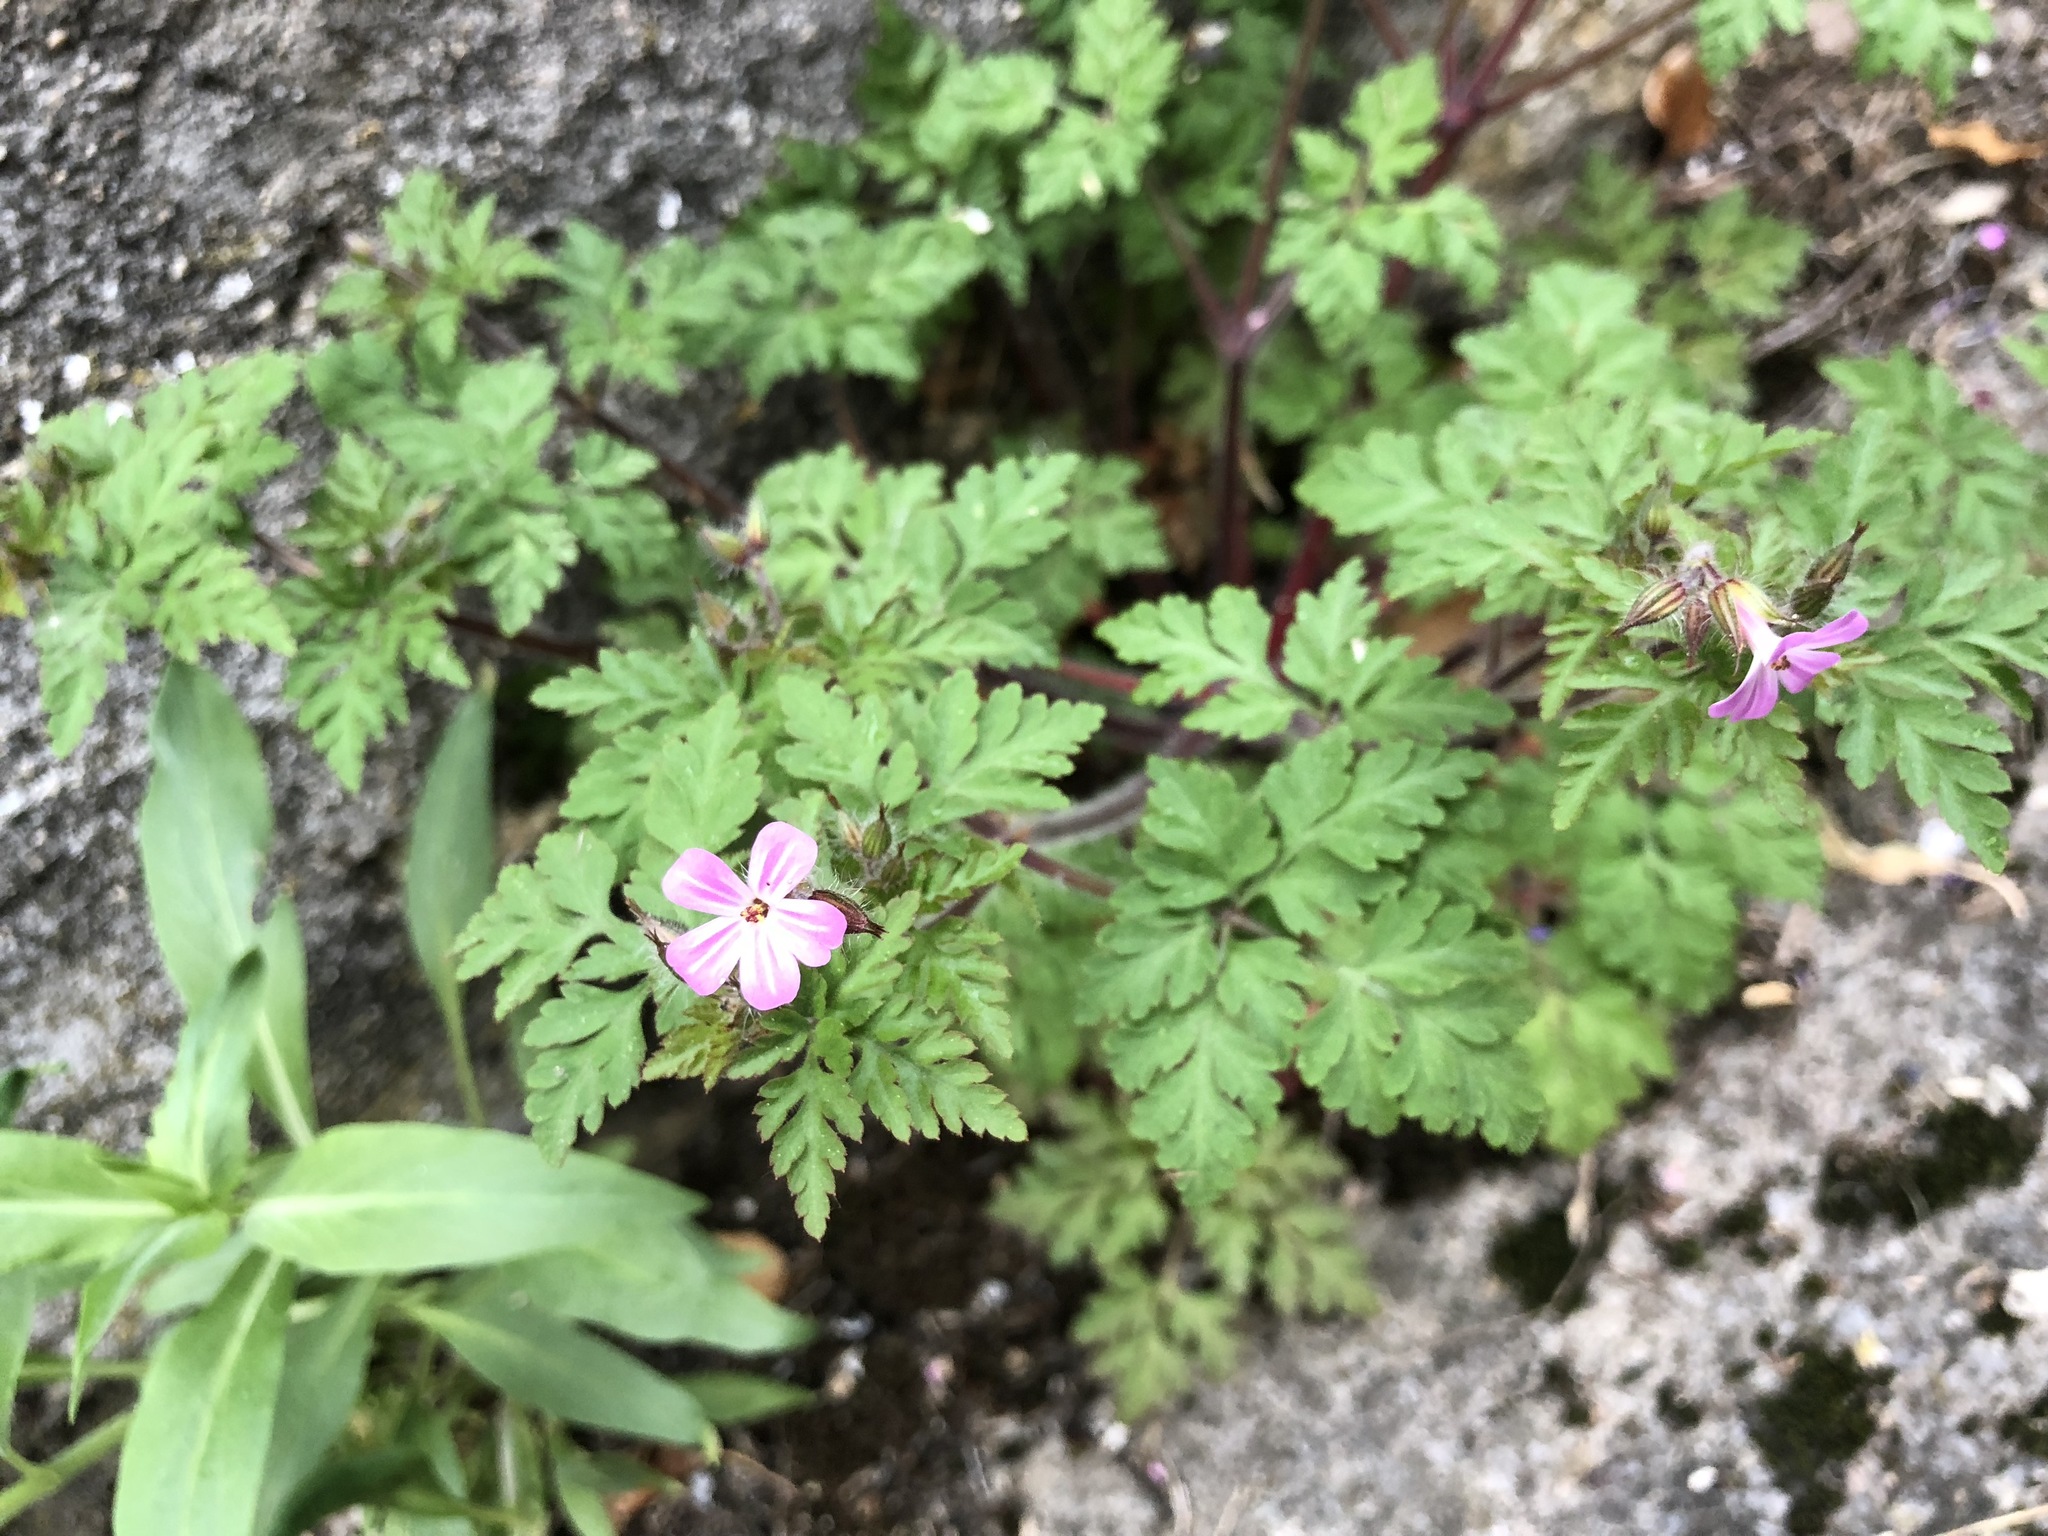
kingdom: Plantae
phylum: Tracheophyta
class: Magnoliopsida
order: Geraniales
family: Geraniaceae
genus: Geranium
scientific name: Geranium robertianum
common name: Herb-robert
